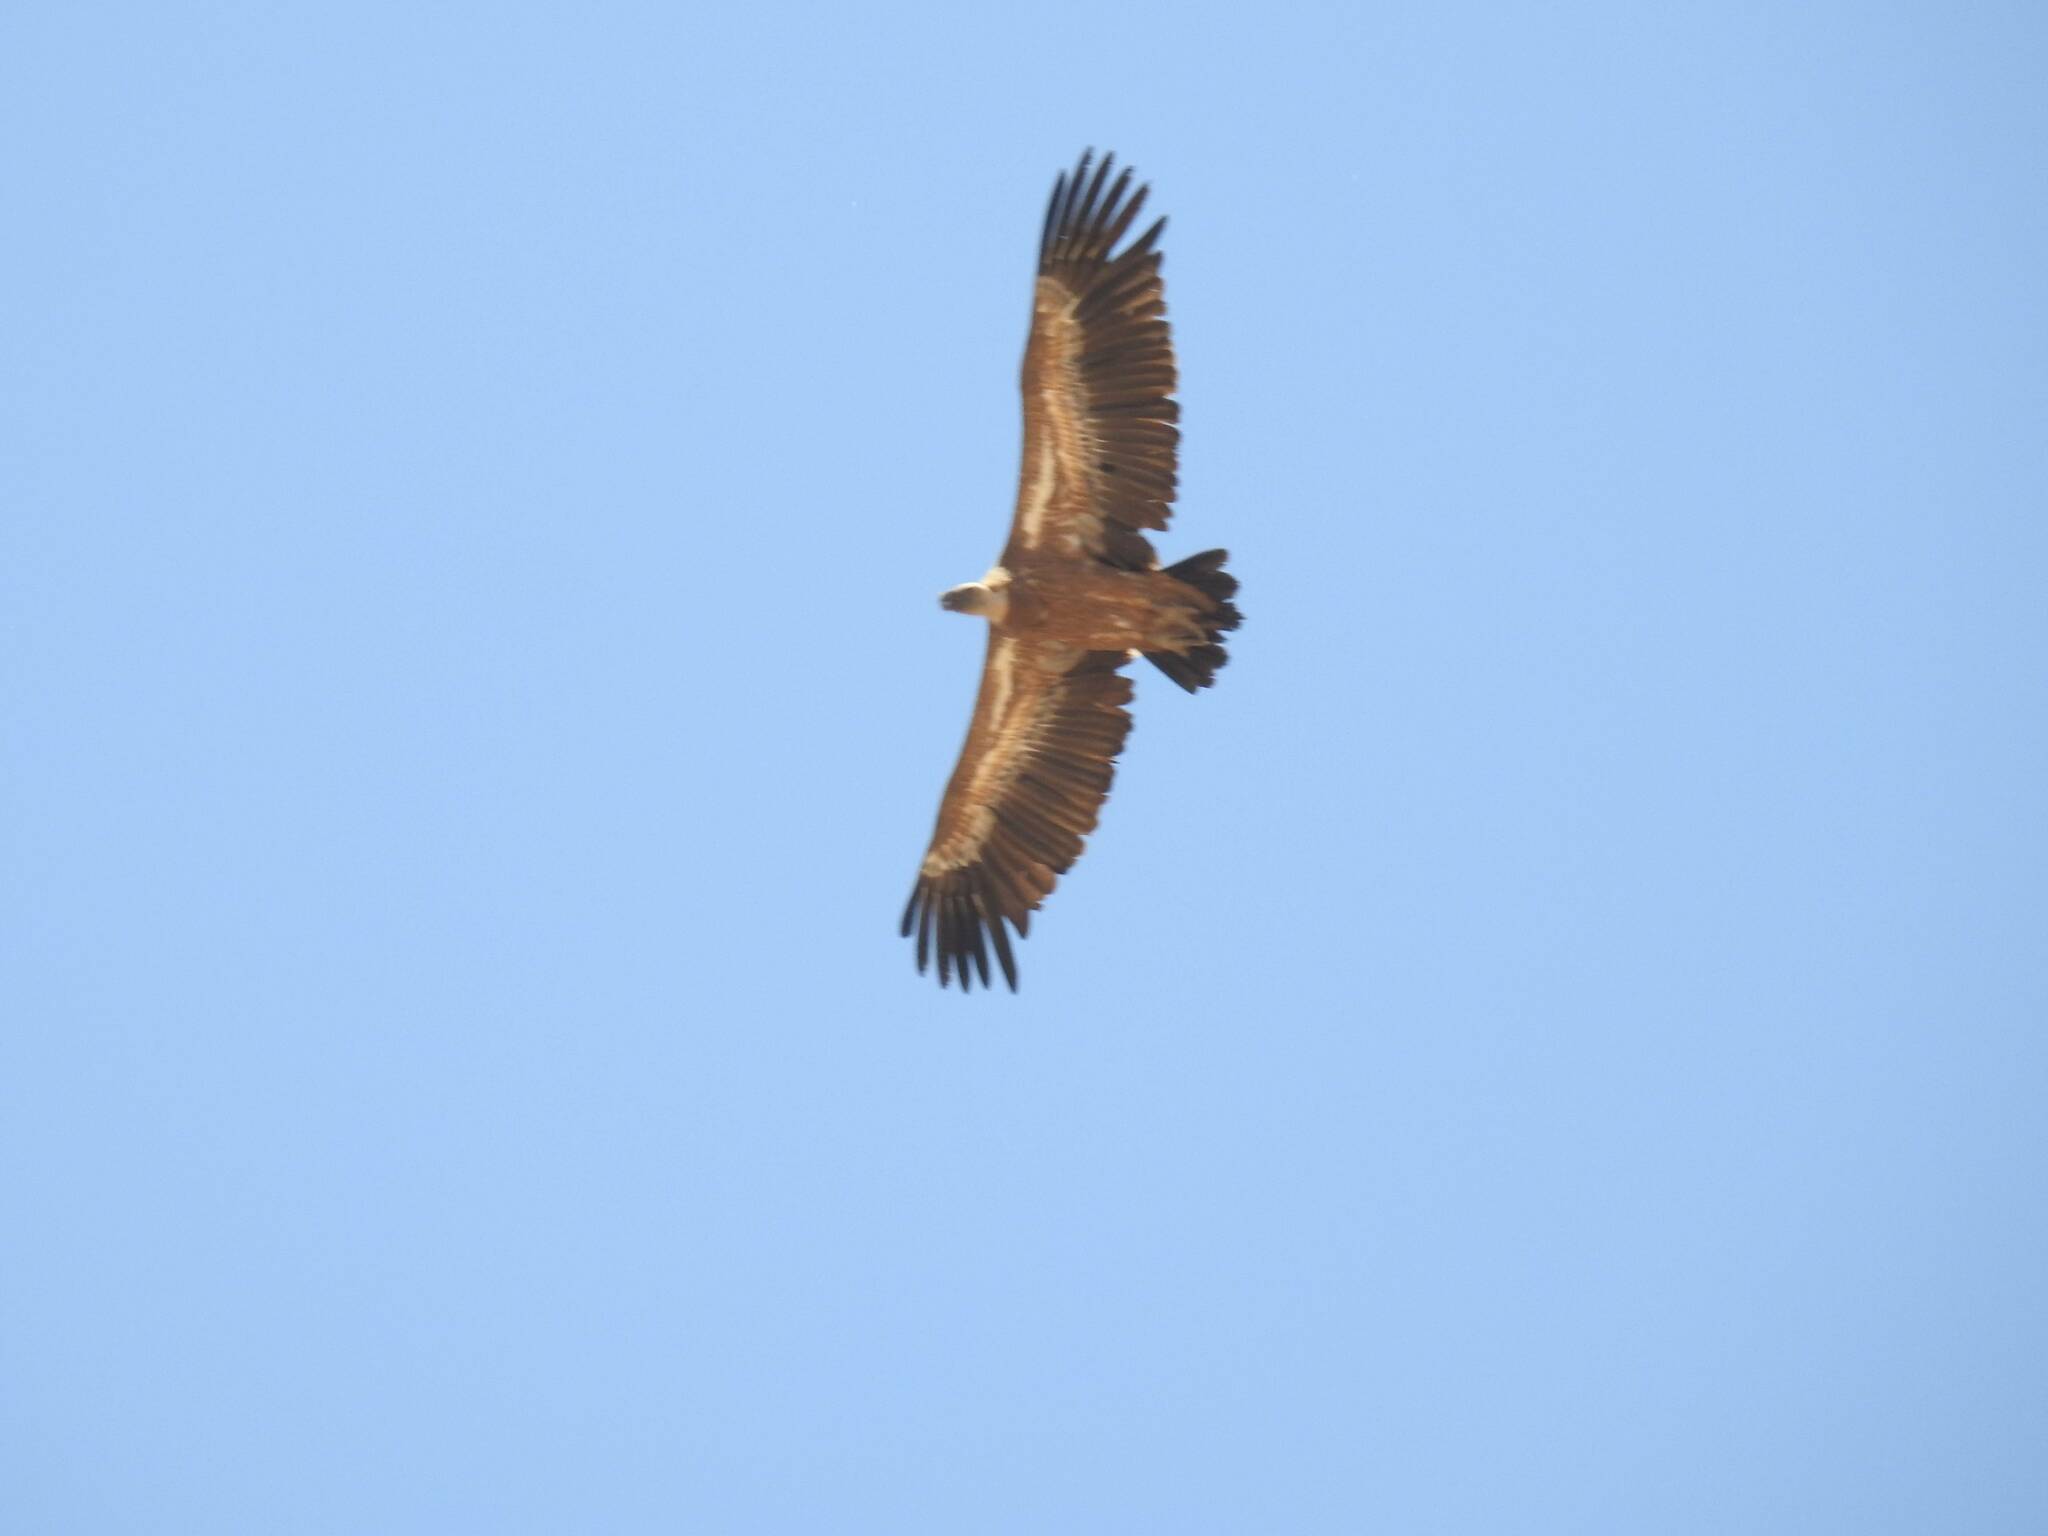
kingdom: Animalia
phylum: Chordata
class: Aves
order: Accipitriformes
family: Accipitridae
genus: Gyps
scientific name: Gyps fulvus
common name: Griffon vulture
